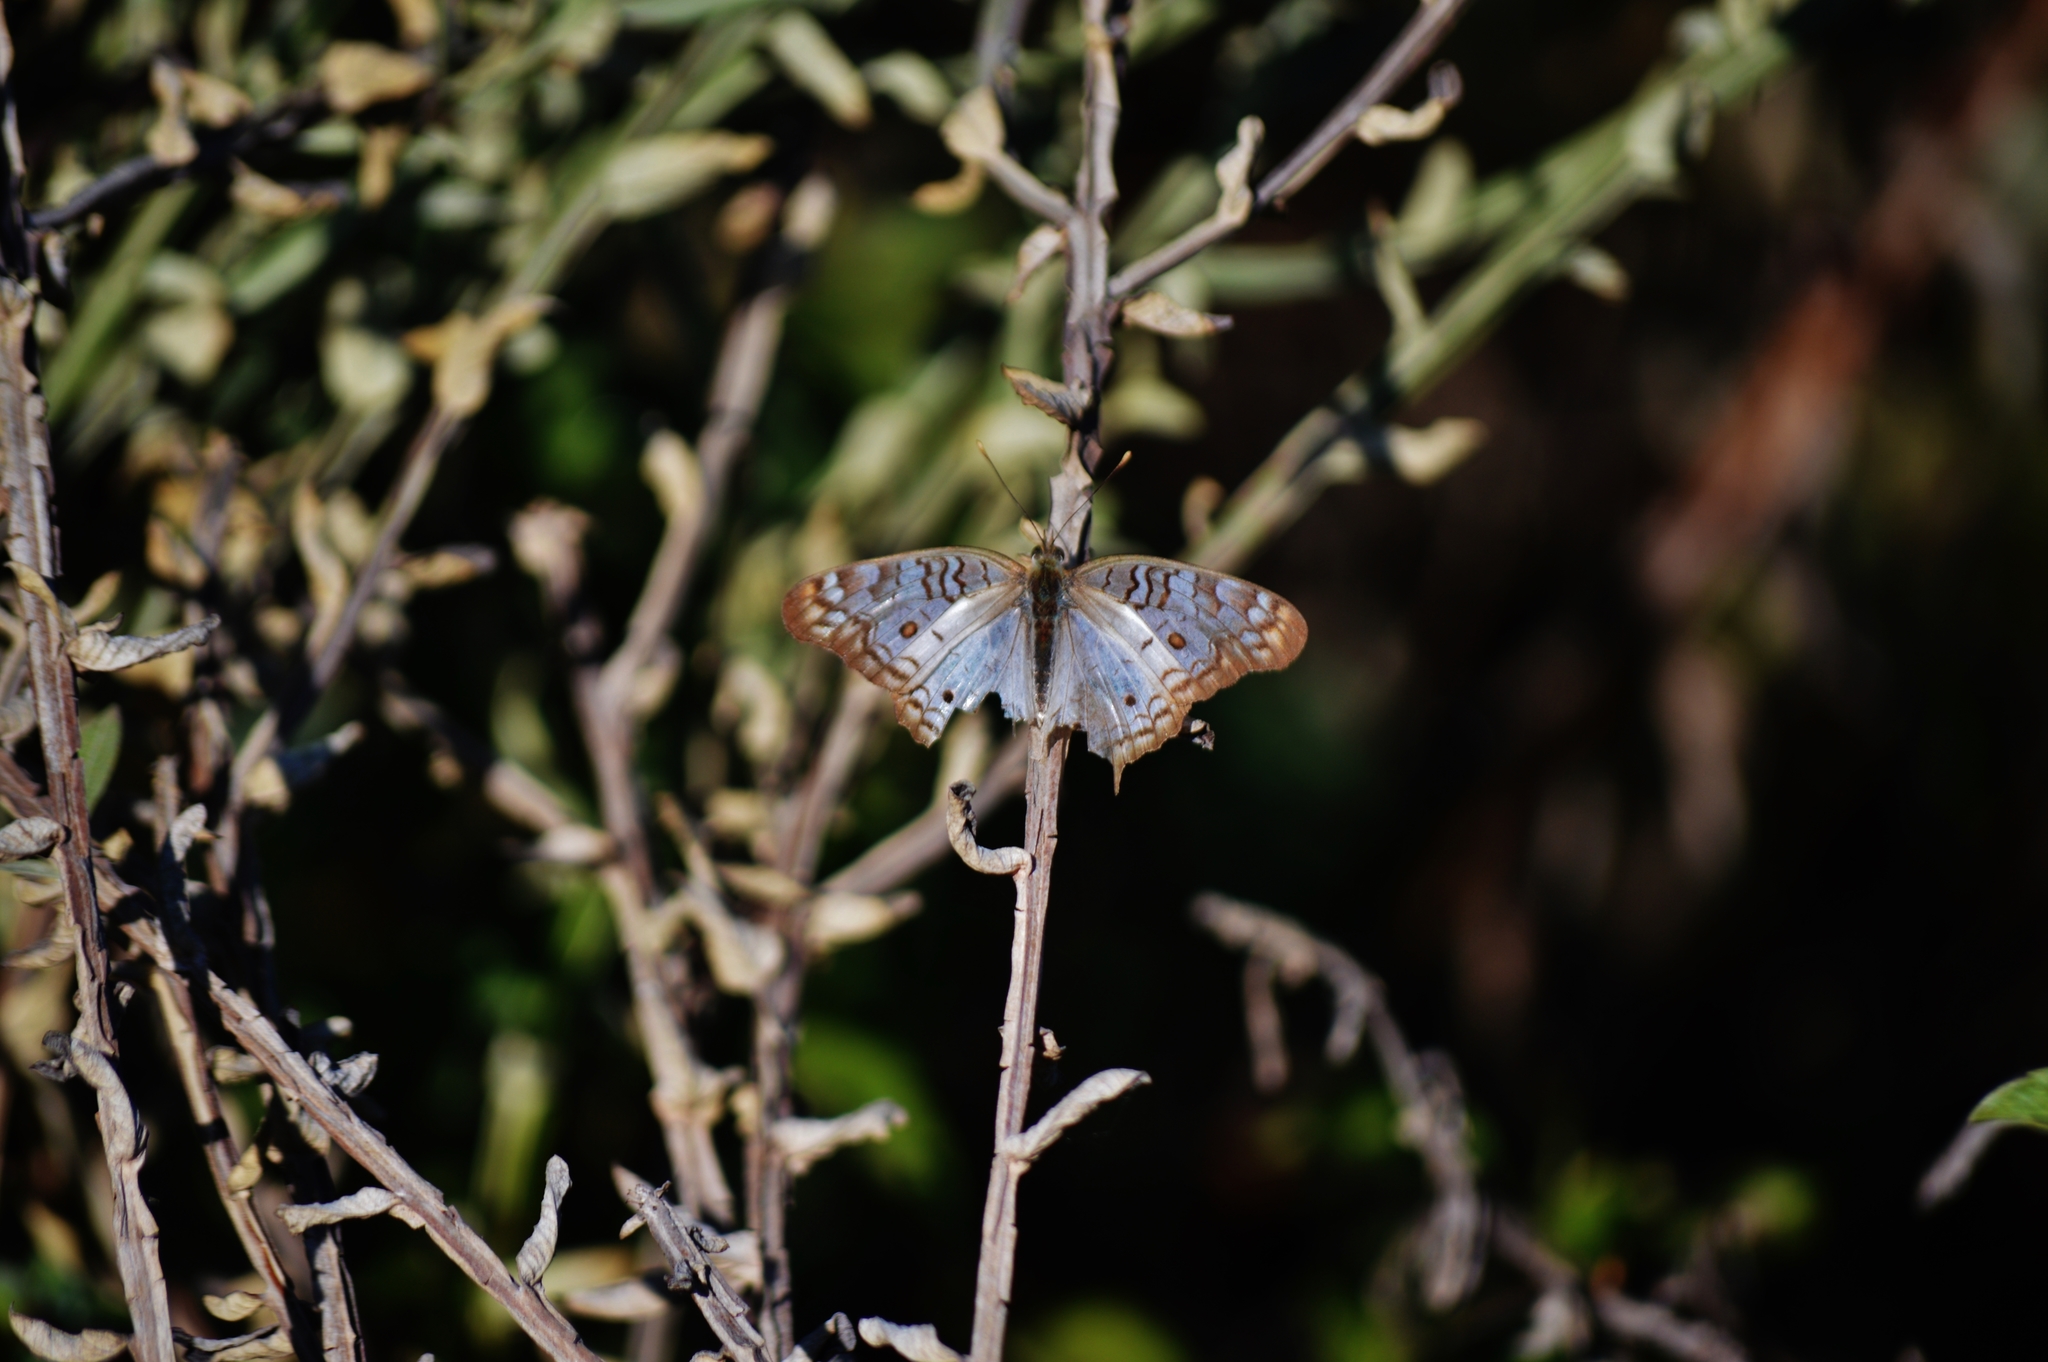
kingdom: Animalia
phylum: Arthropoda
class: Insecta
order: Lepidoptera
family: Nymphalidae
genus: Anartia
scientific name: Anartia jatrophae
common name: White peacock
